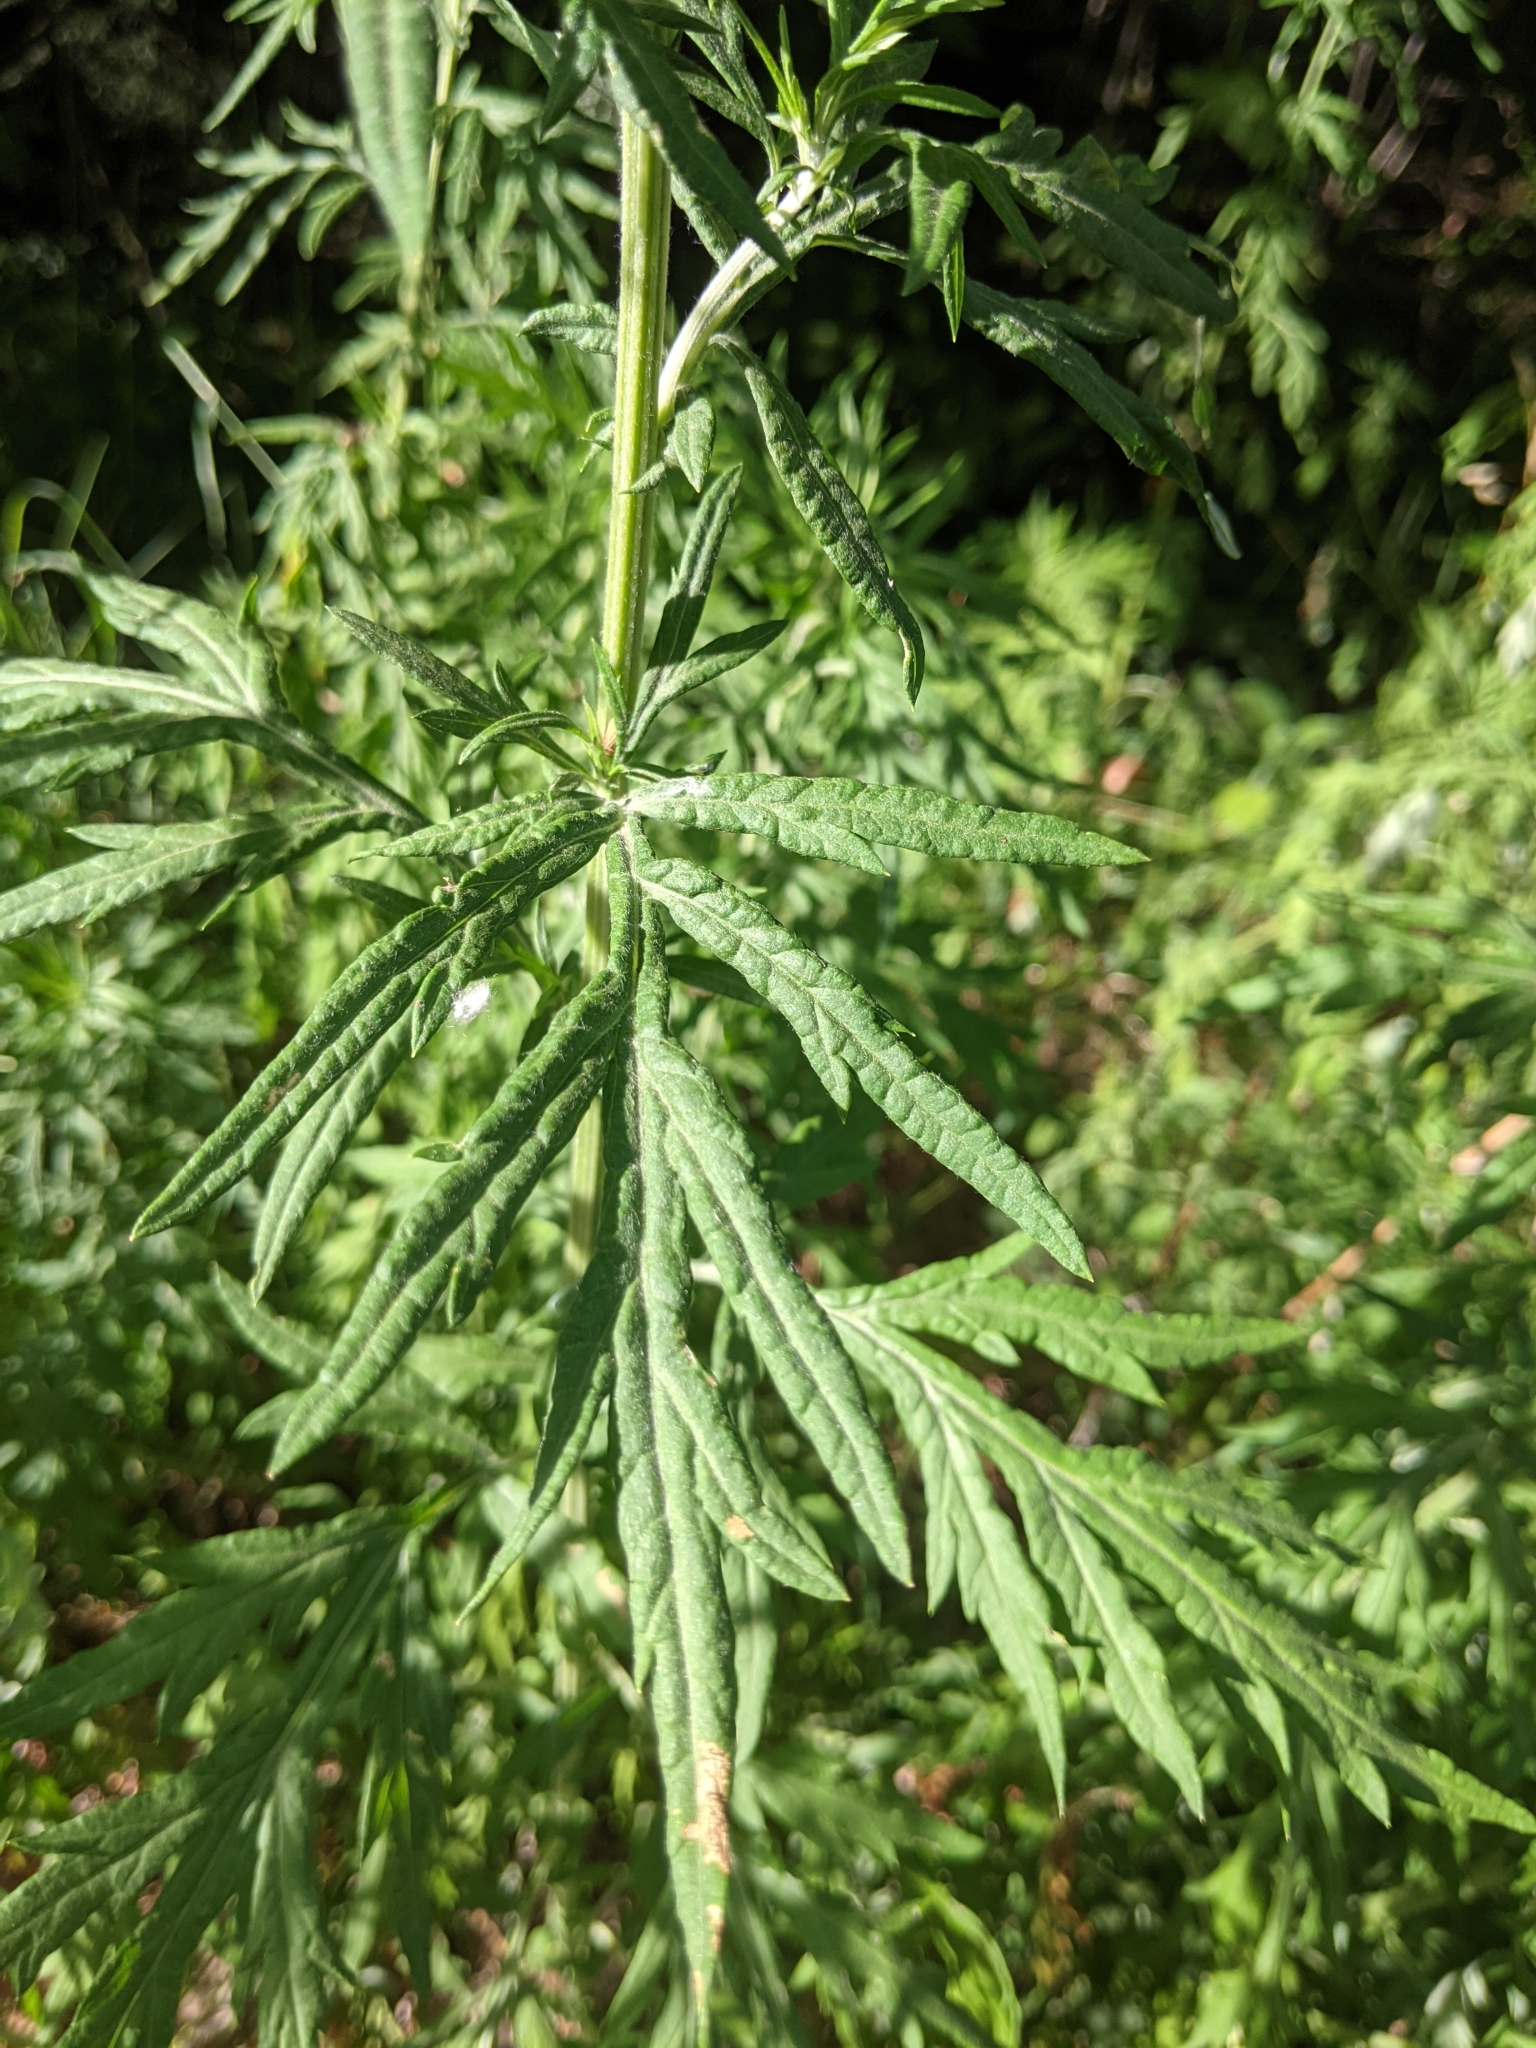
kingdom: Plantae
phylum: Tracheophyta
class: Magnoliopsida
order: Asterales
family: Asteraceae
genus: Artemisia
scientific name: Artemisia vulgaris
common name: Mugwort
